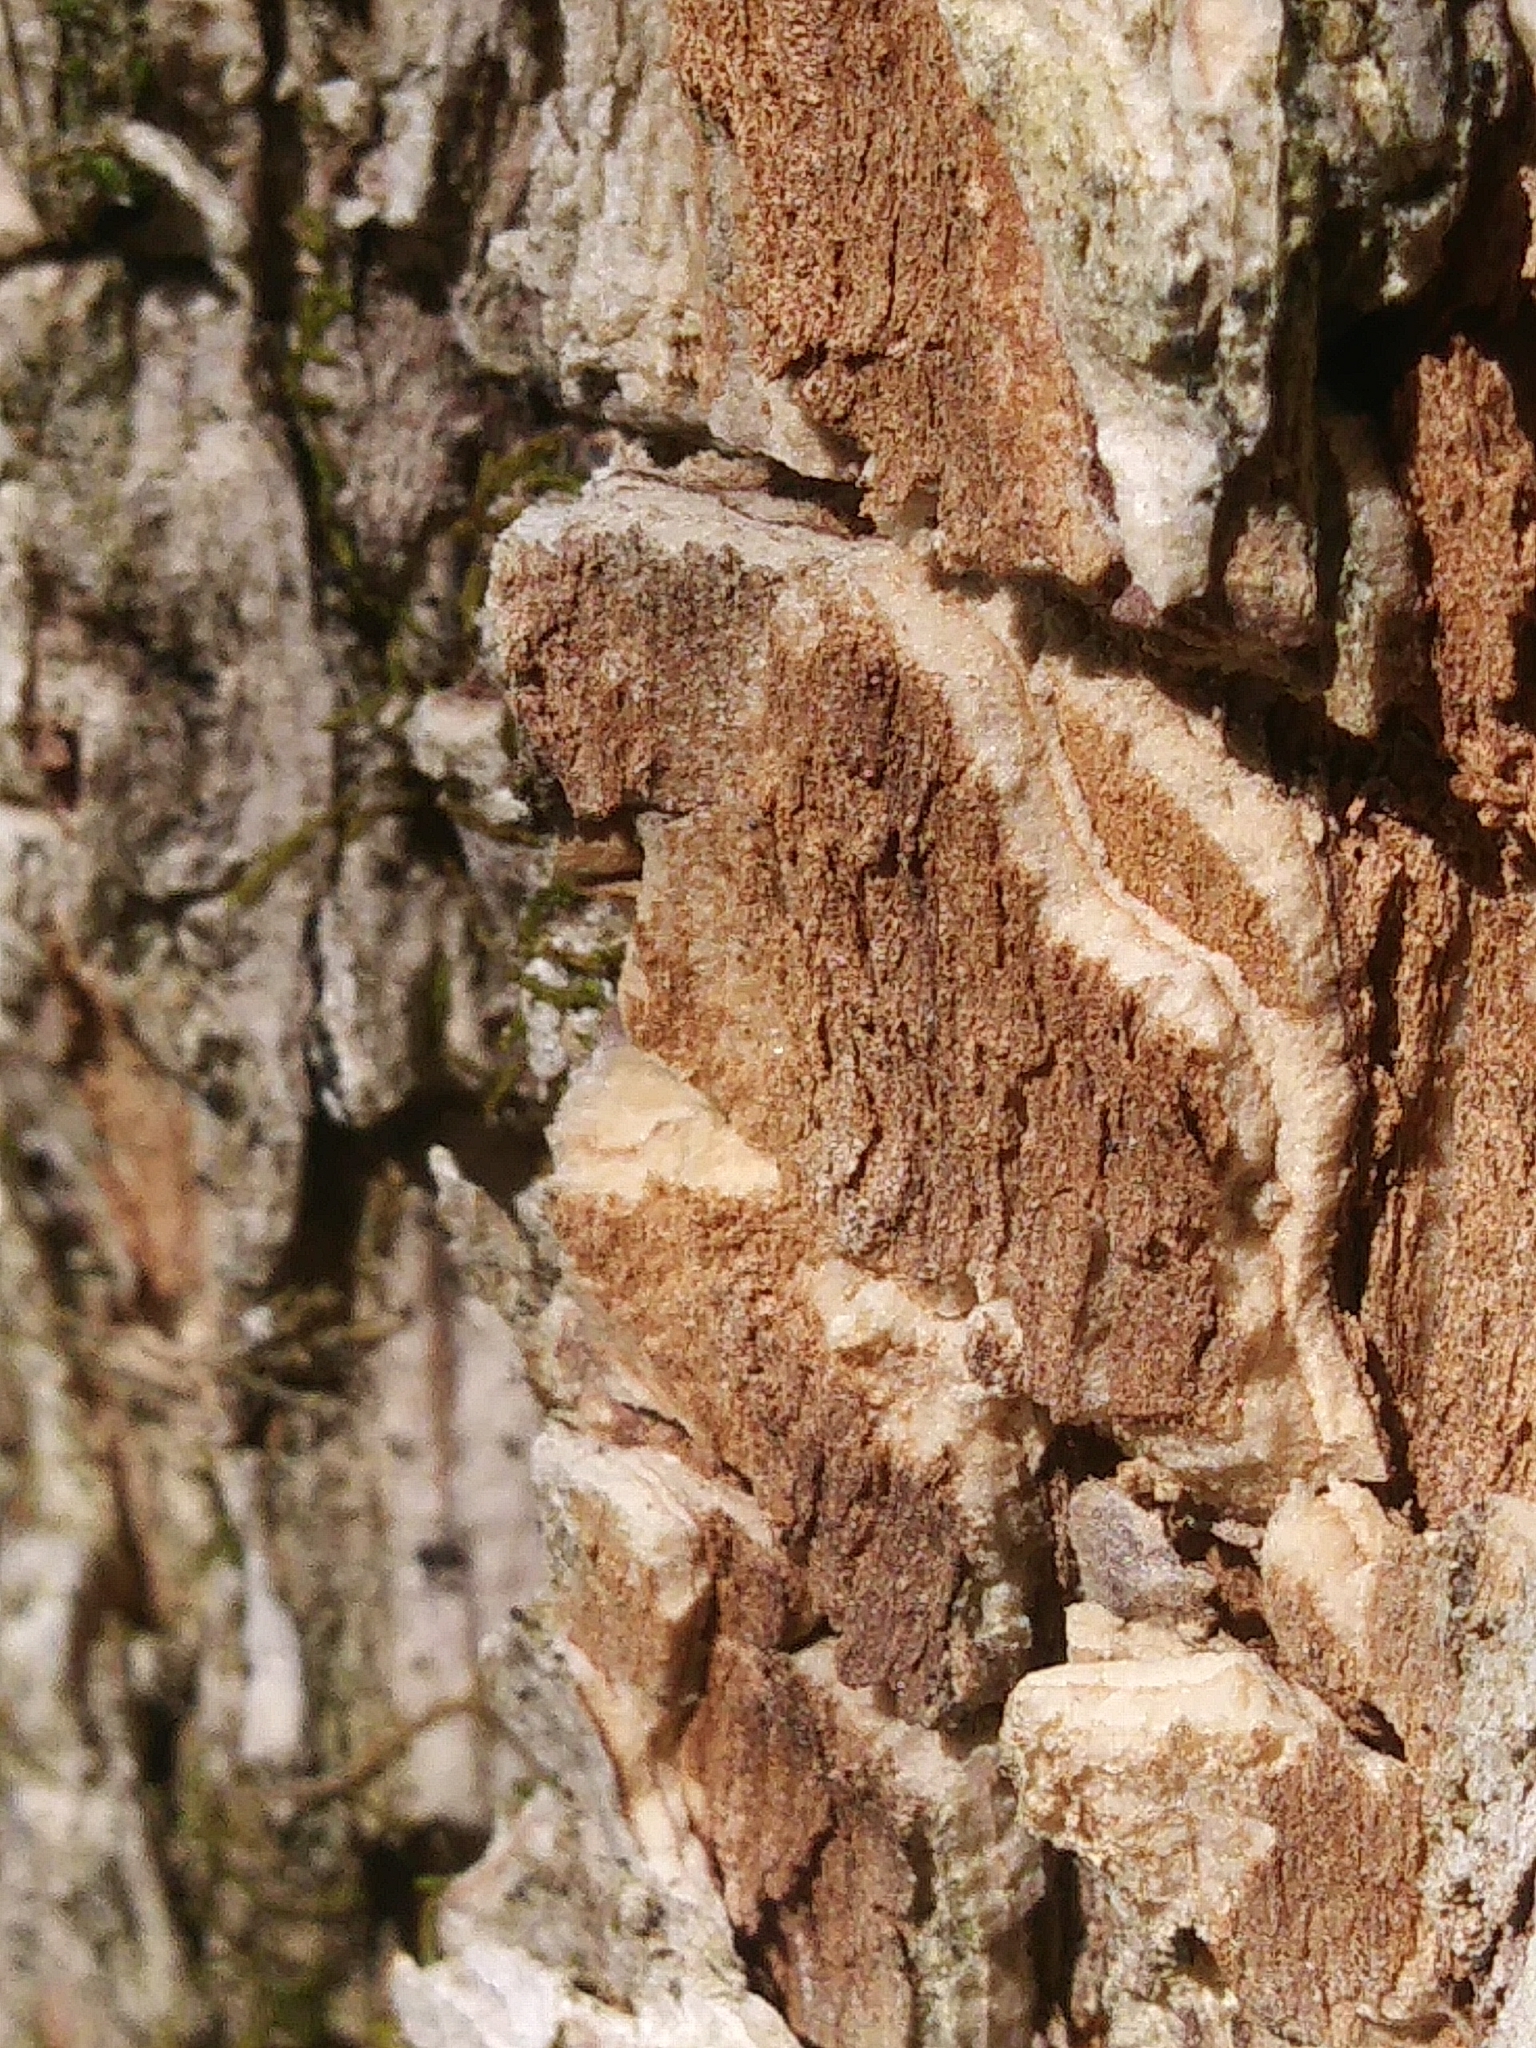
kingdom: Plantae
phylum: Tracheophyta
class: Magnoliopsida
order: Rosales
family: Ulmaceae
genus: Ulmus
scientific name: Ulmus americana
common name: American elm
